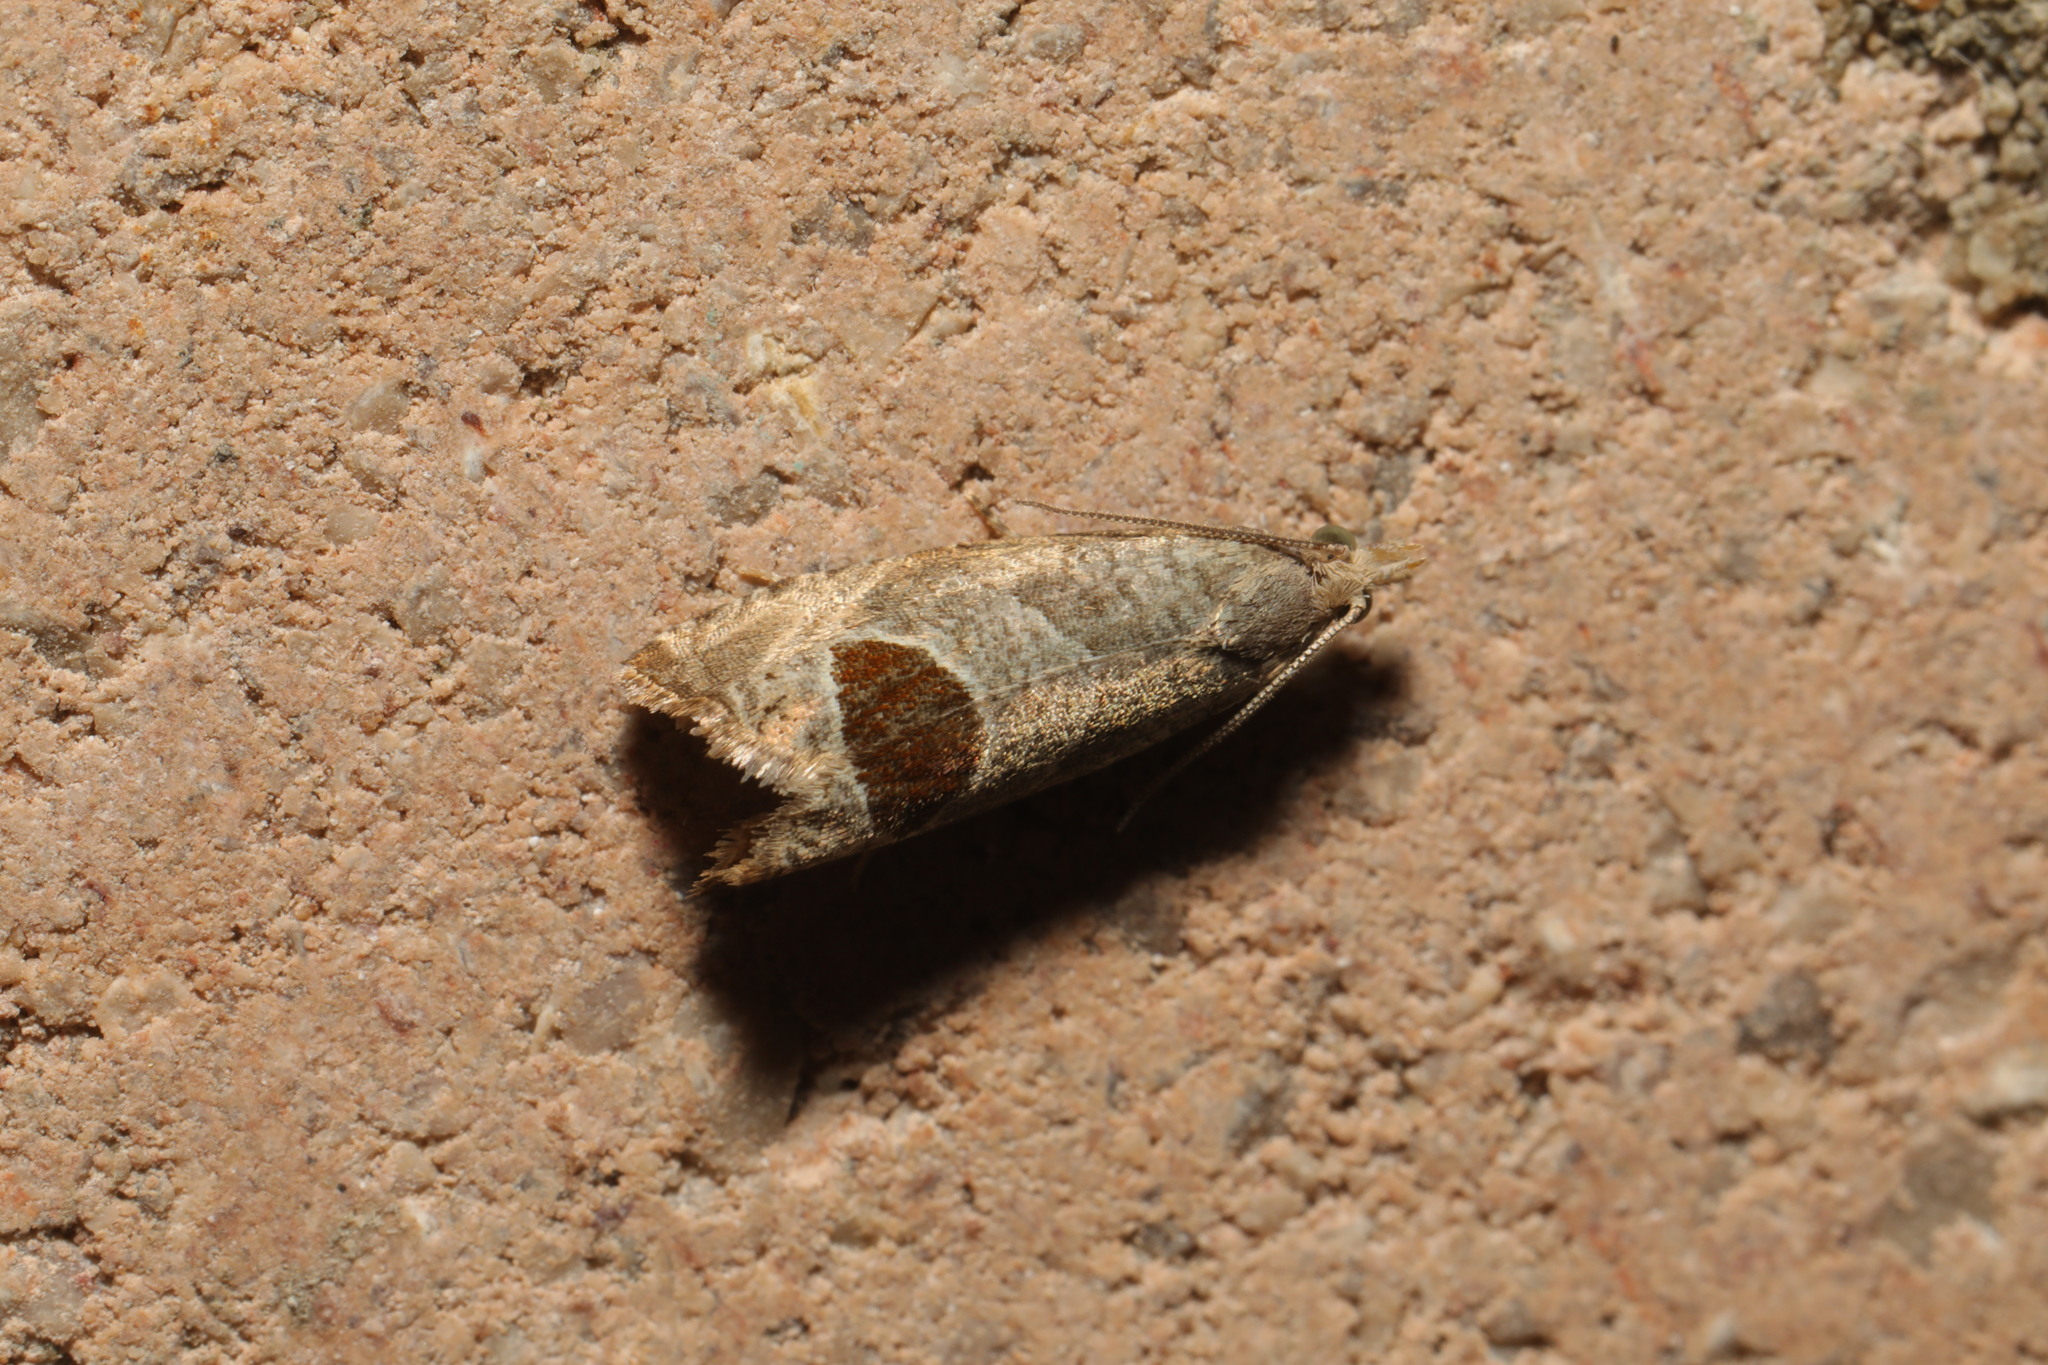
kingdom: Animalia
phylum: Arthropoda
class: Insecta
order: Lepidoptera
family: Tortricidae
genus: Notocelia
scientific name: Notocelia uddmanniana
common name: Bramble shoot moth
